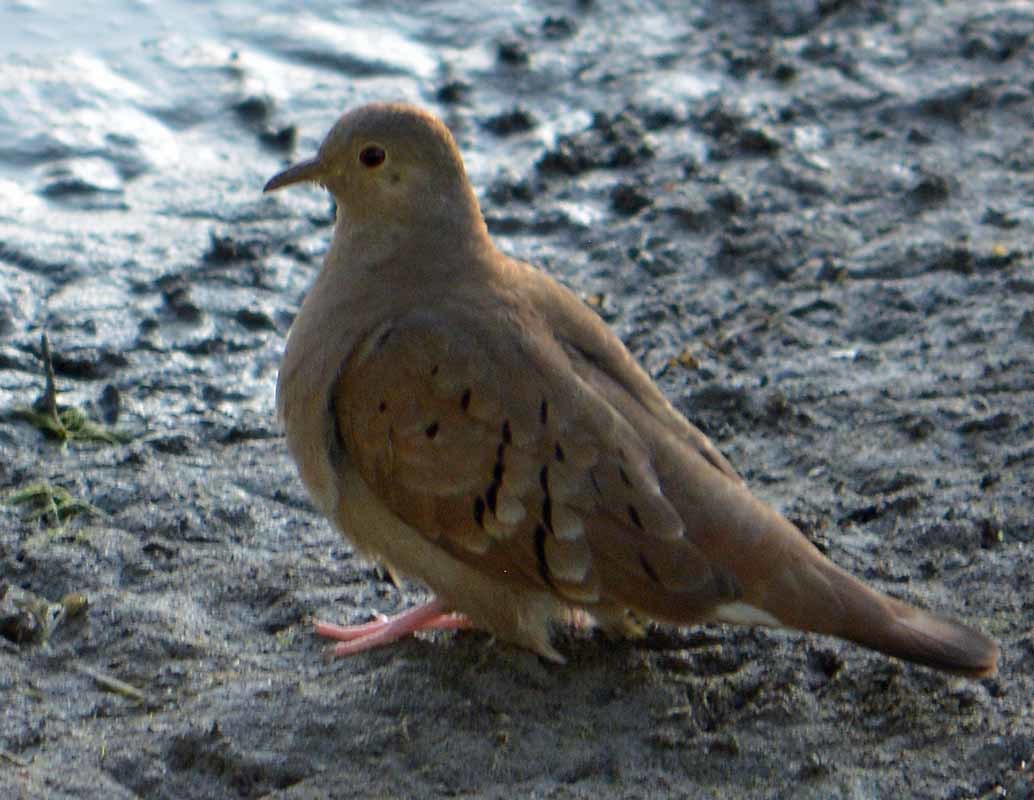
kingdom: Animalia
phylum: Chordata
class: Aves
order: Columbiformes
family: Columbidae
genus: Columbina
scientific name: Columbina talpacoti
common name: Ruddy ground dove
